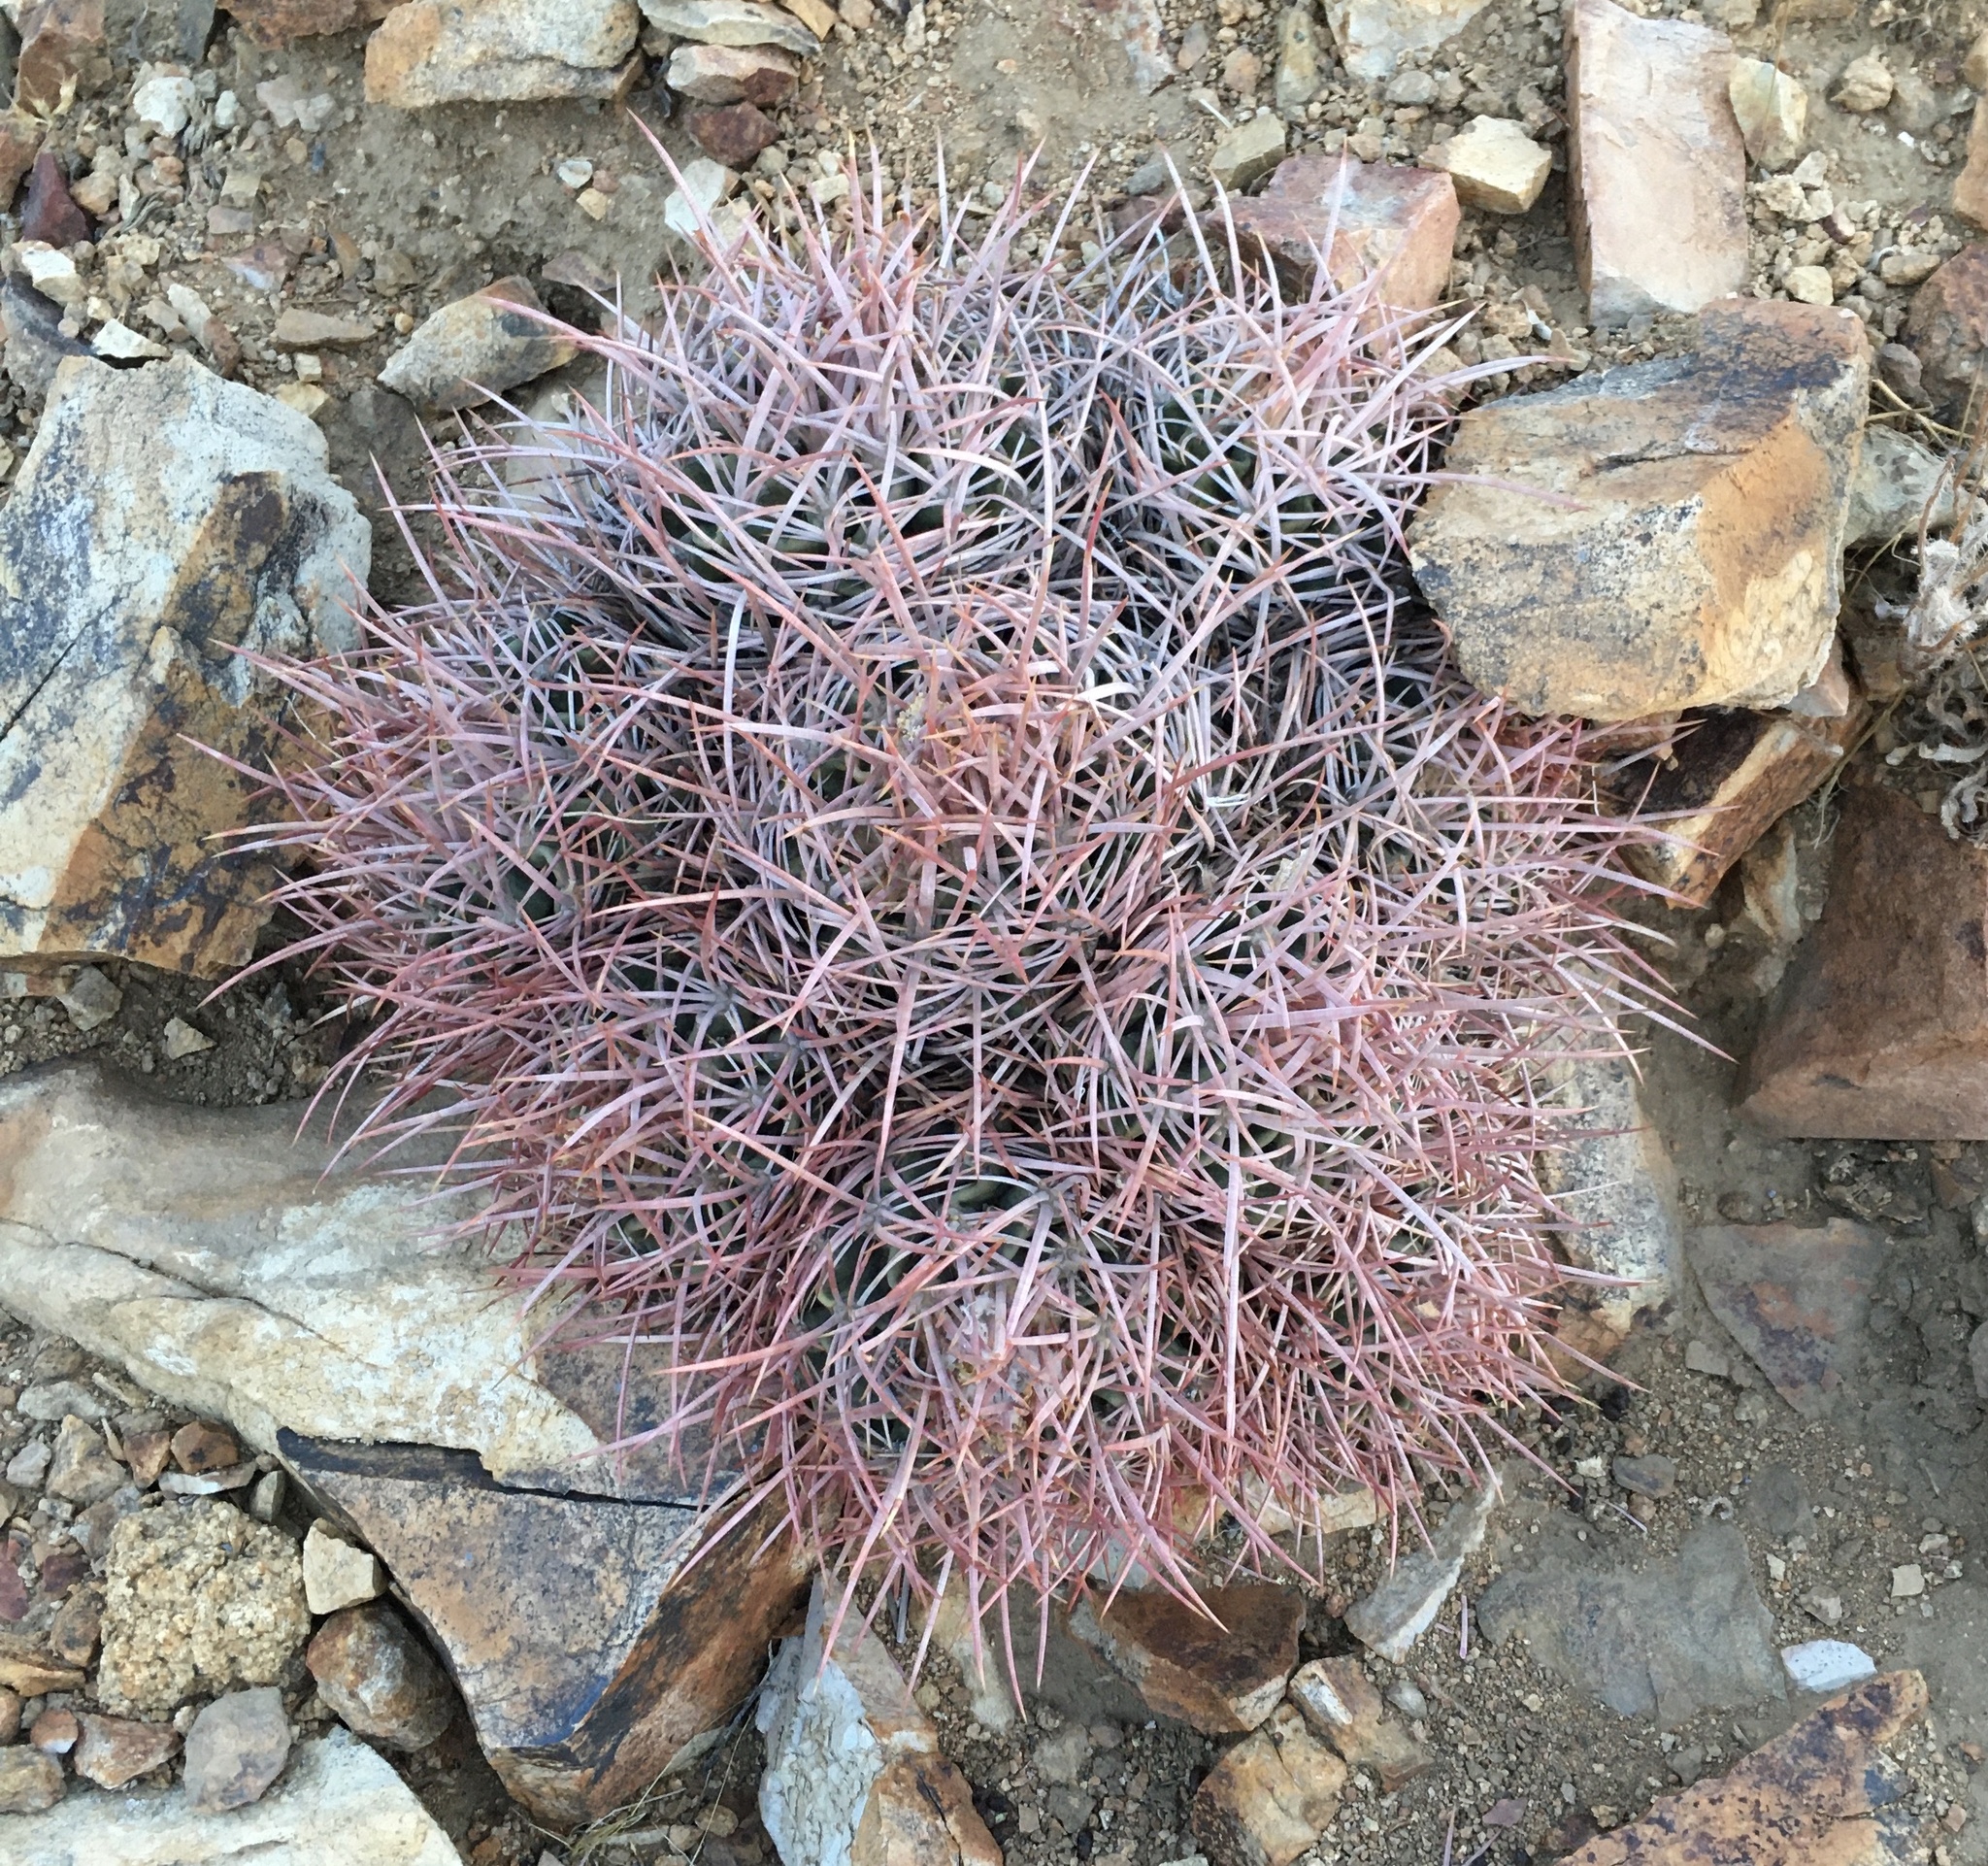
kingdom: Plantae
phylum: Tracheophyta
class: Magnoliopsida
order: Caryophyllales
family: Cactaceae
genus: Echinocactus
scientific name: Echinocactus polycephalus
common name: Cottontop cactus
